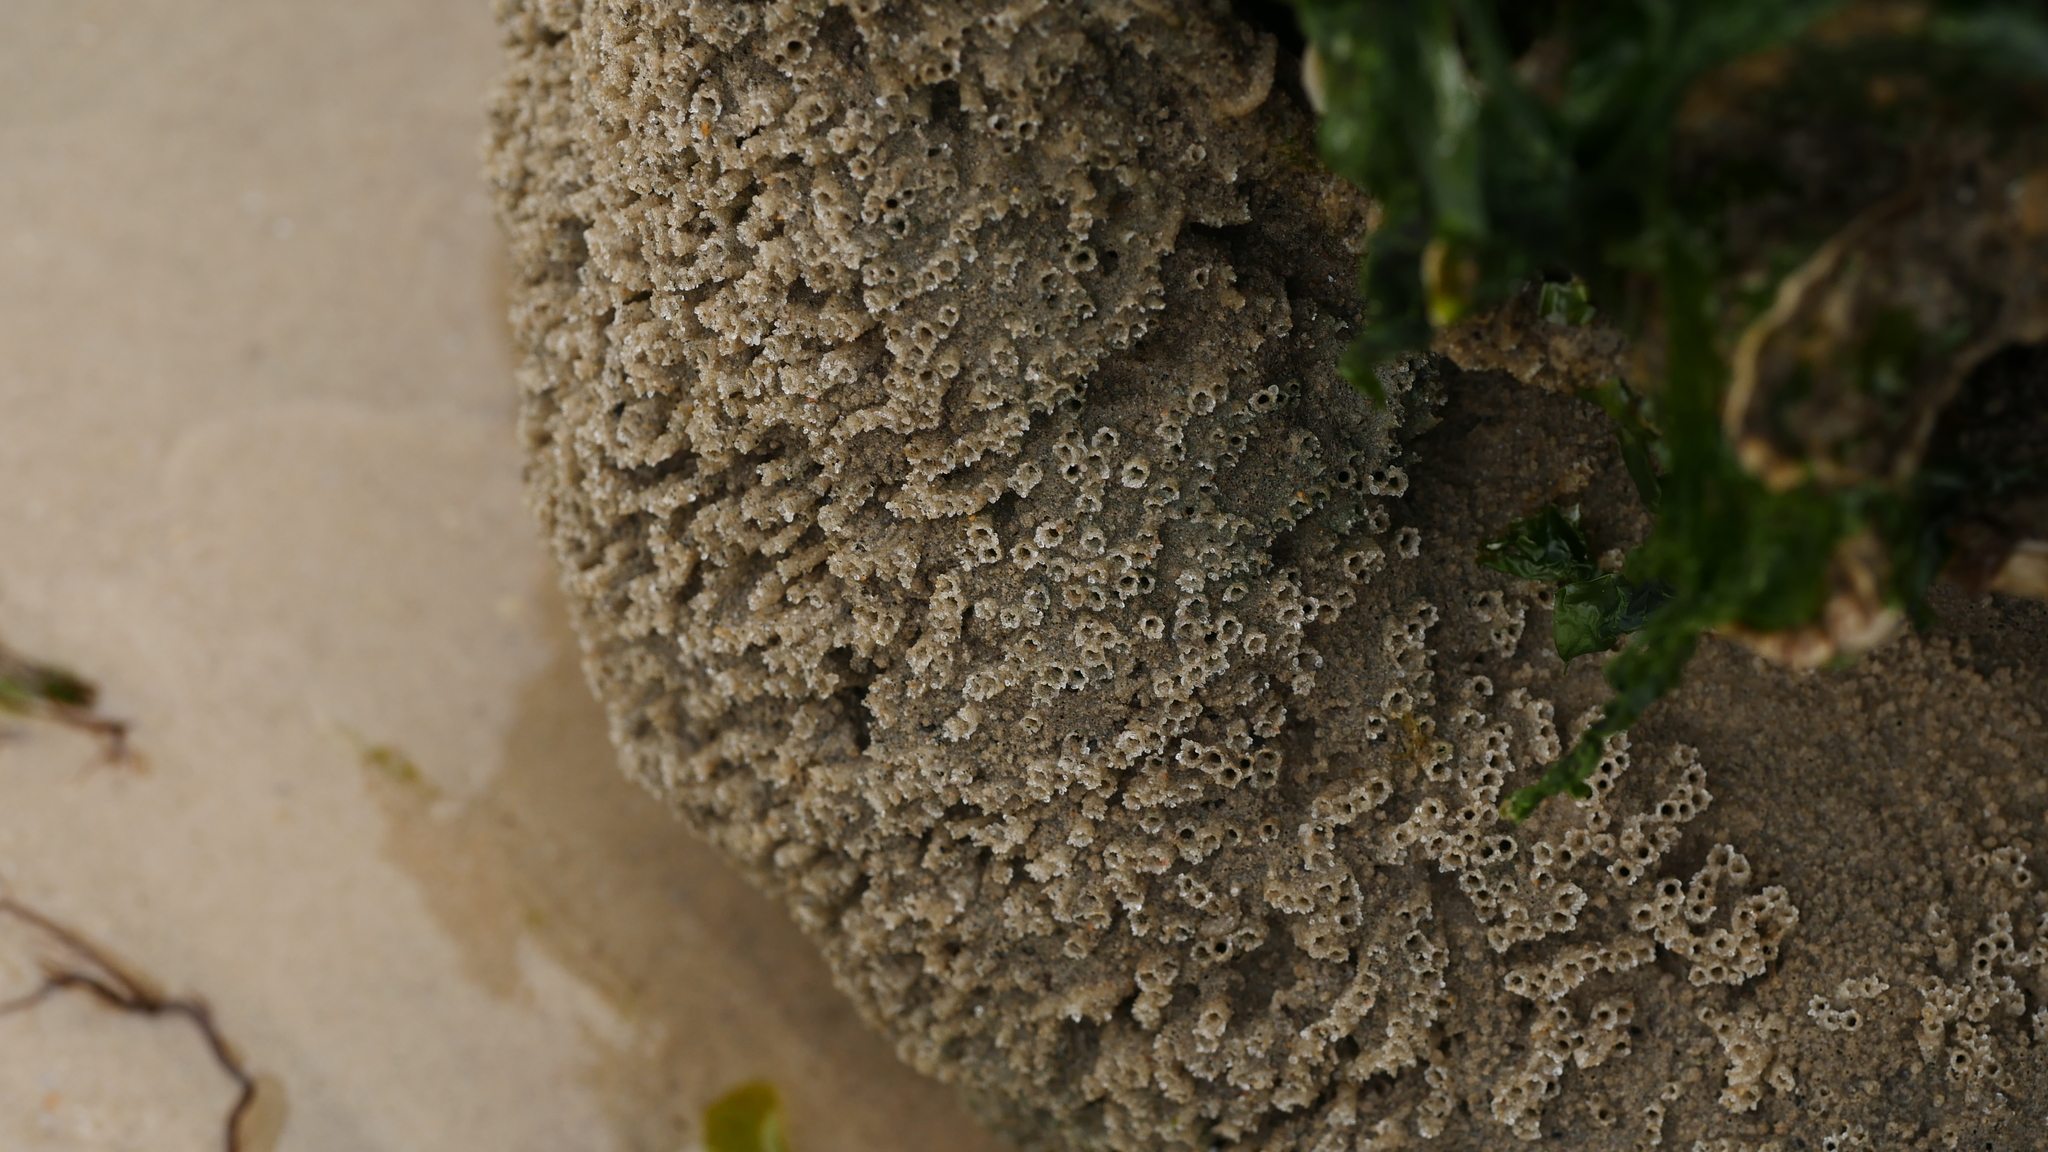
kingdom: Animalia
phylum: Annelida
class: Polychaeta
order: Sabellida
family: Sabellariidae
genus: Phragmatopoma
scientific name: Phragmatopoma caudata
